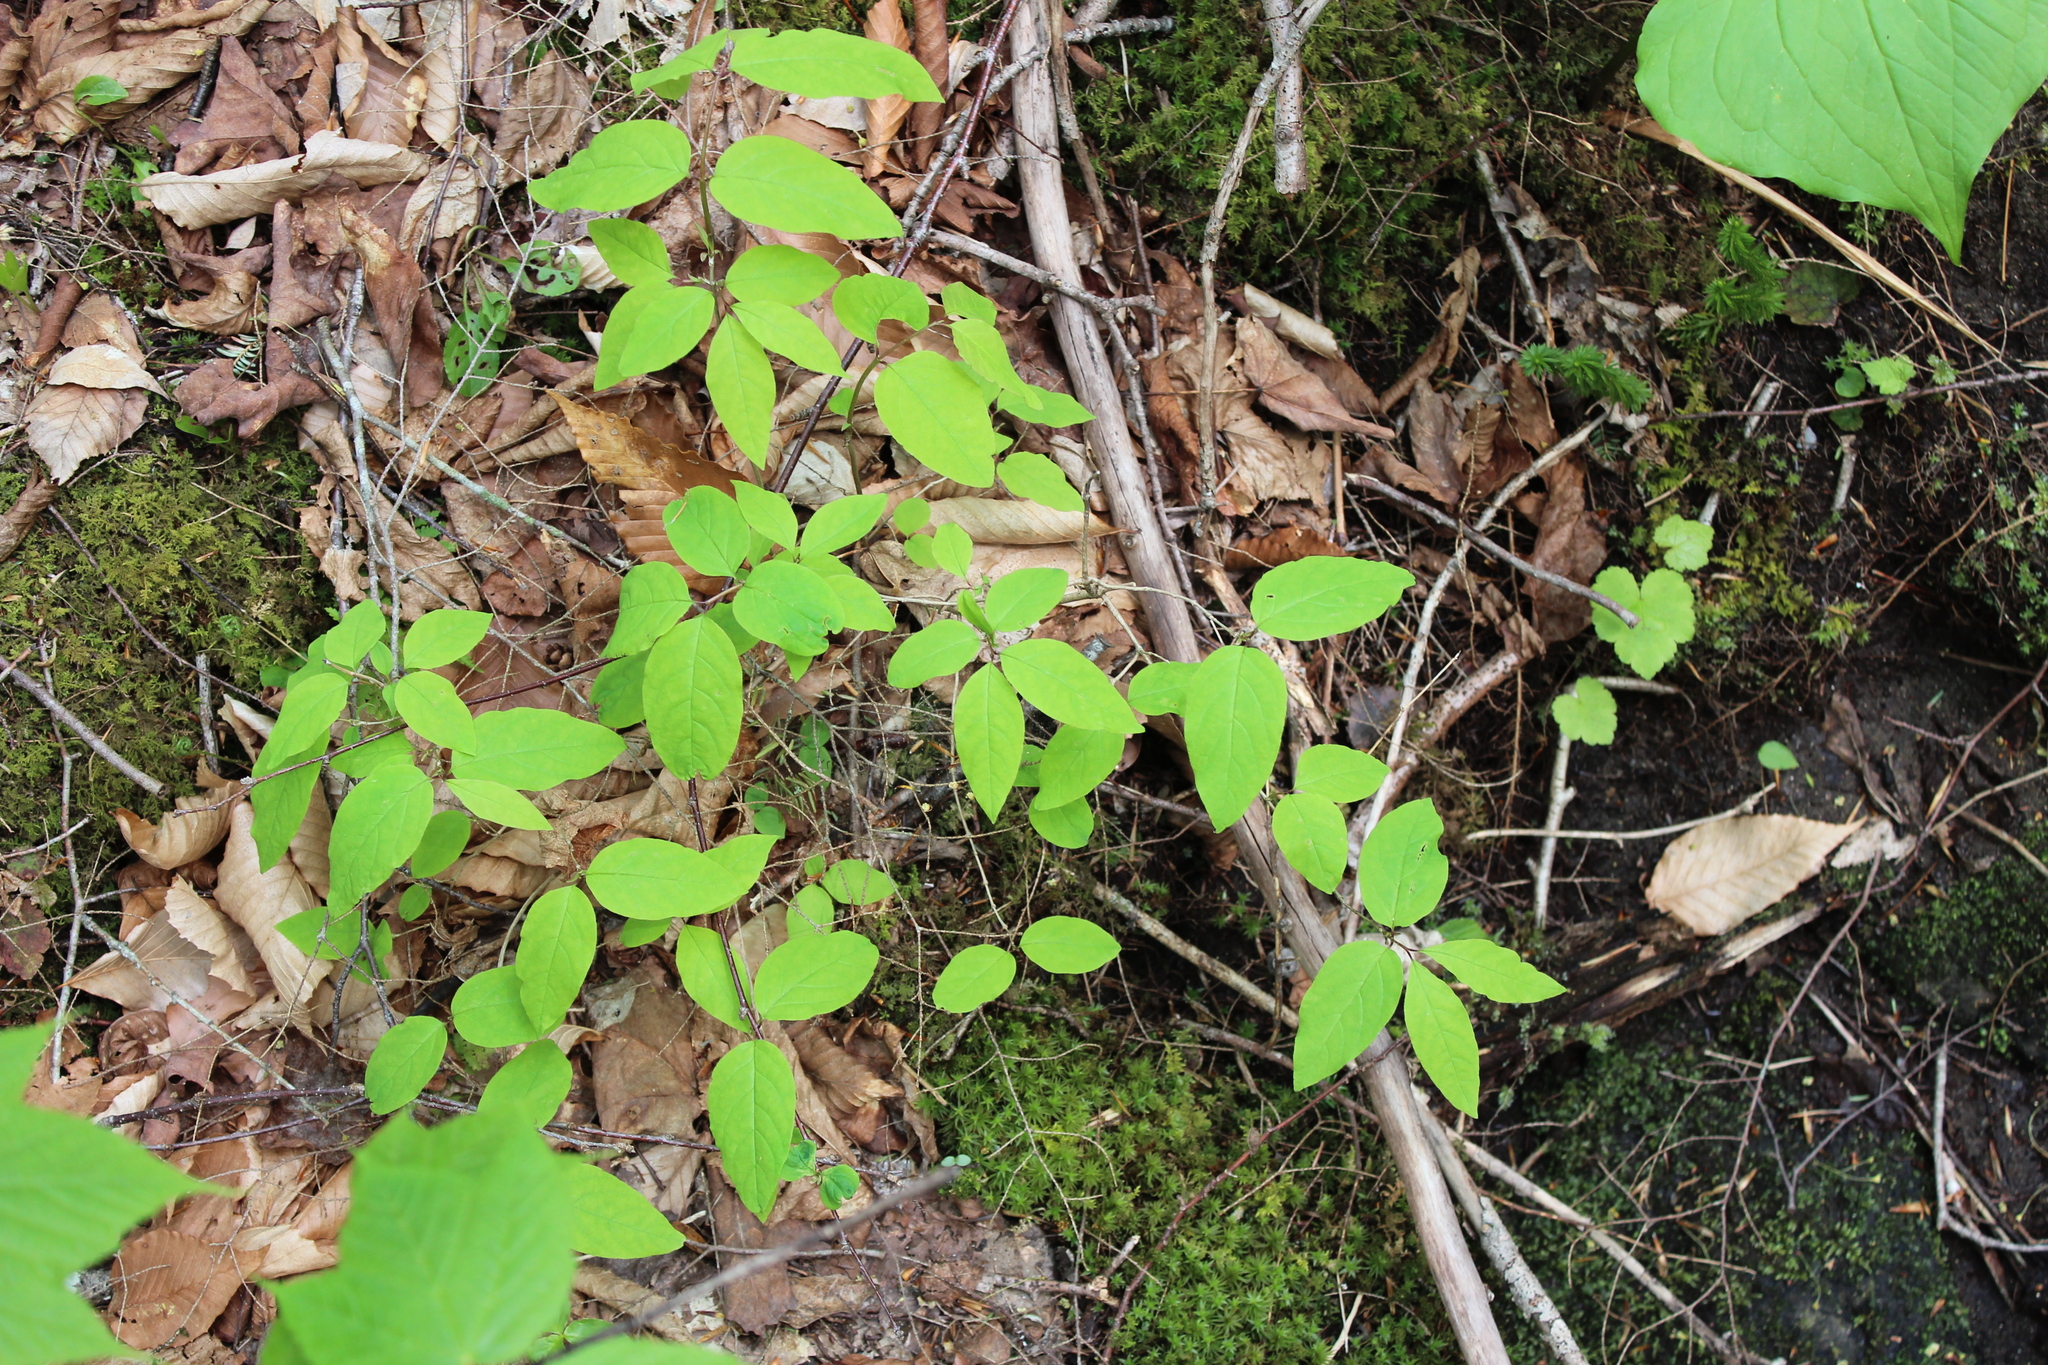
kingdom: Plantae
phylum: Tracheophyta
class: Magnoliopsida
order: Dipsacales
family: Caprifoliaceae
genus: Lonicera
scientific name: Lonicera canadensis
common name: American fly-honeysuckle
